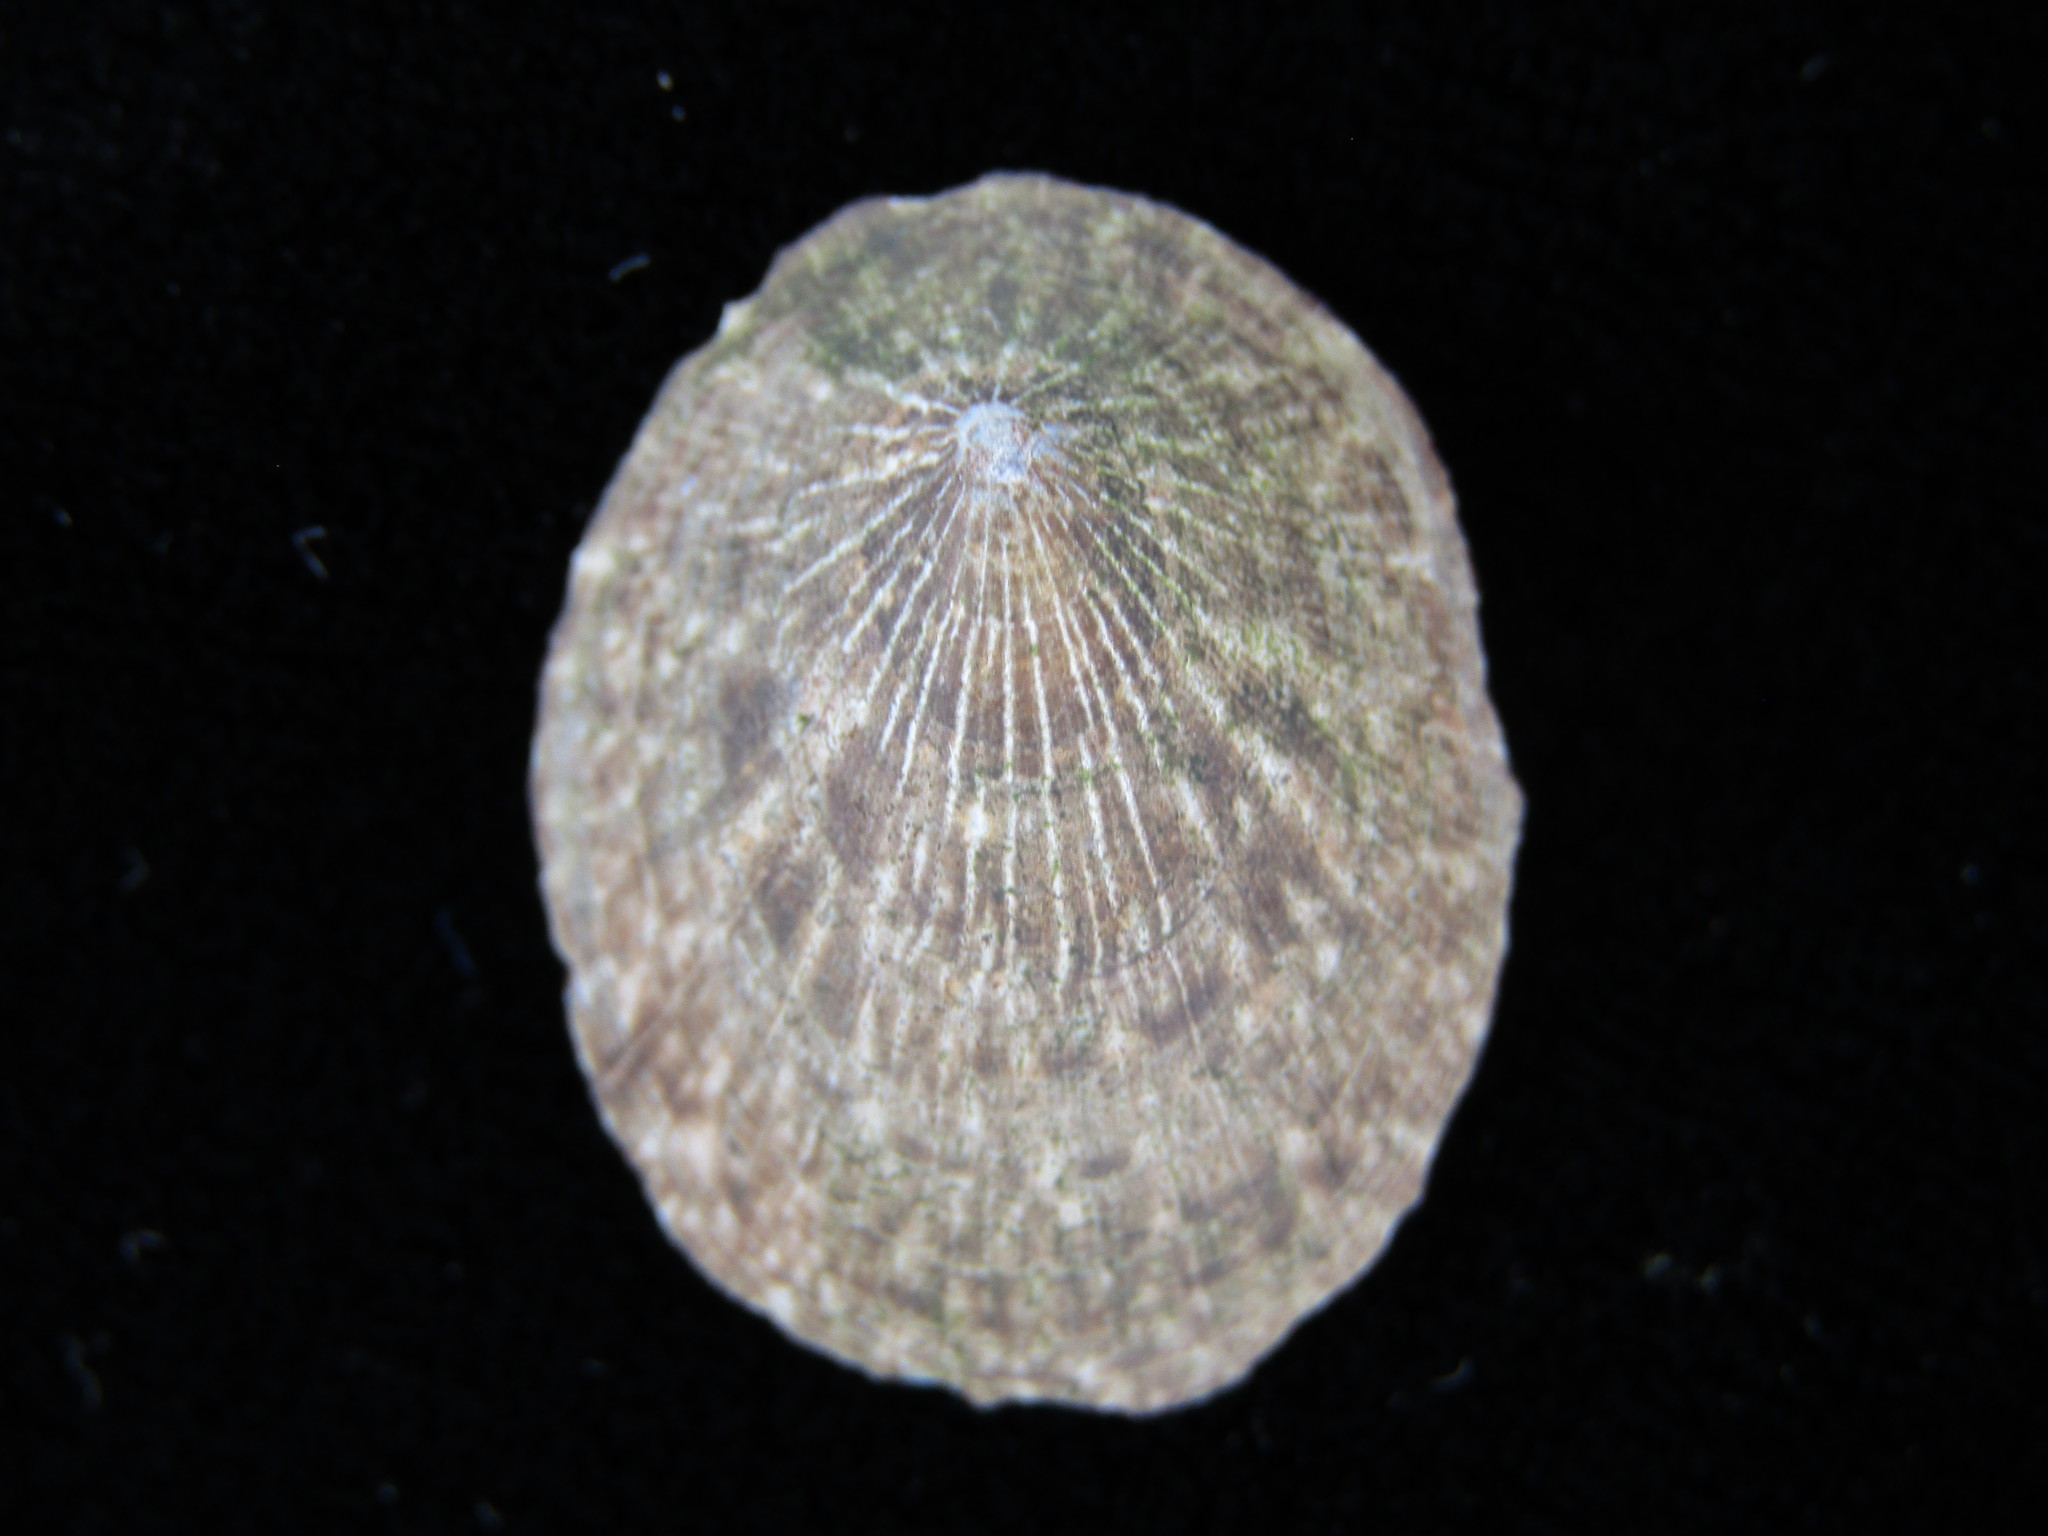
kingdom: Animalia
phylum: Mollusca
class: Gastropoda
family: Lottiidae
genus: Nipponacmea
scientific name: Nipponacmea concinna
